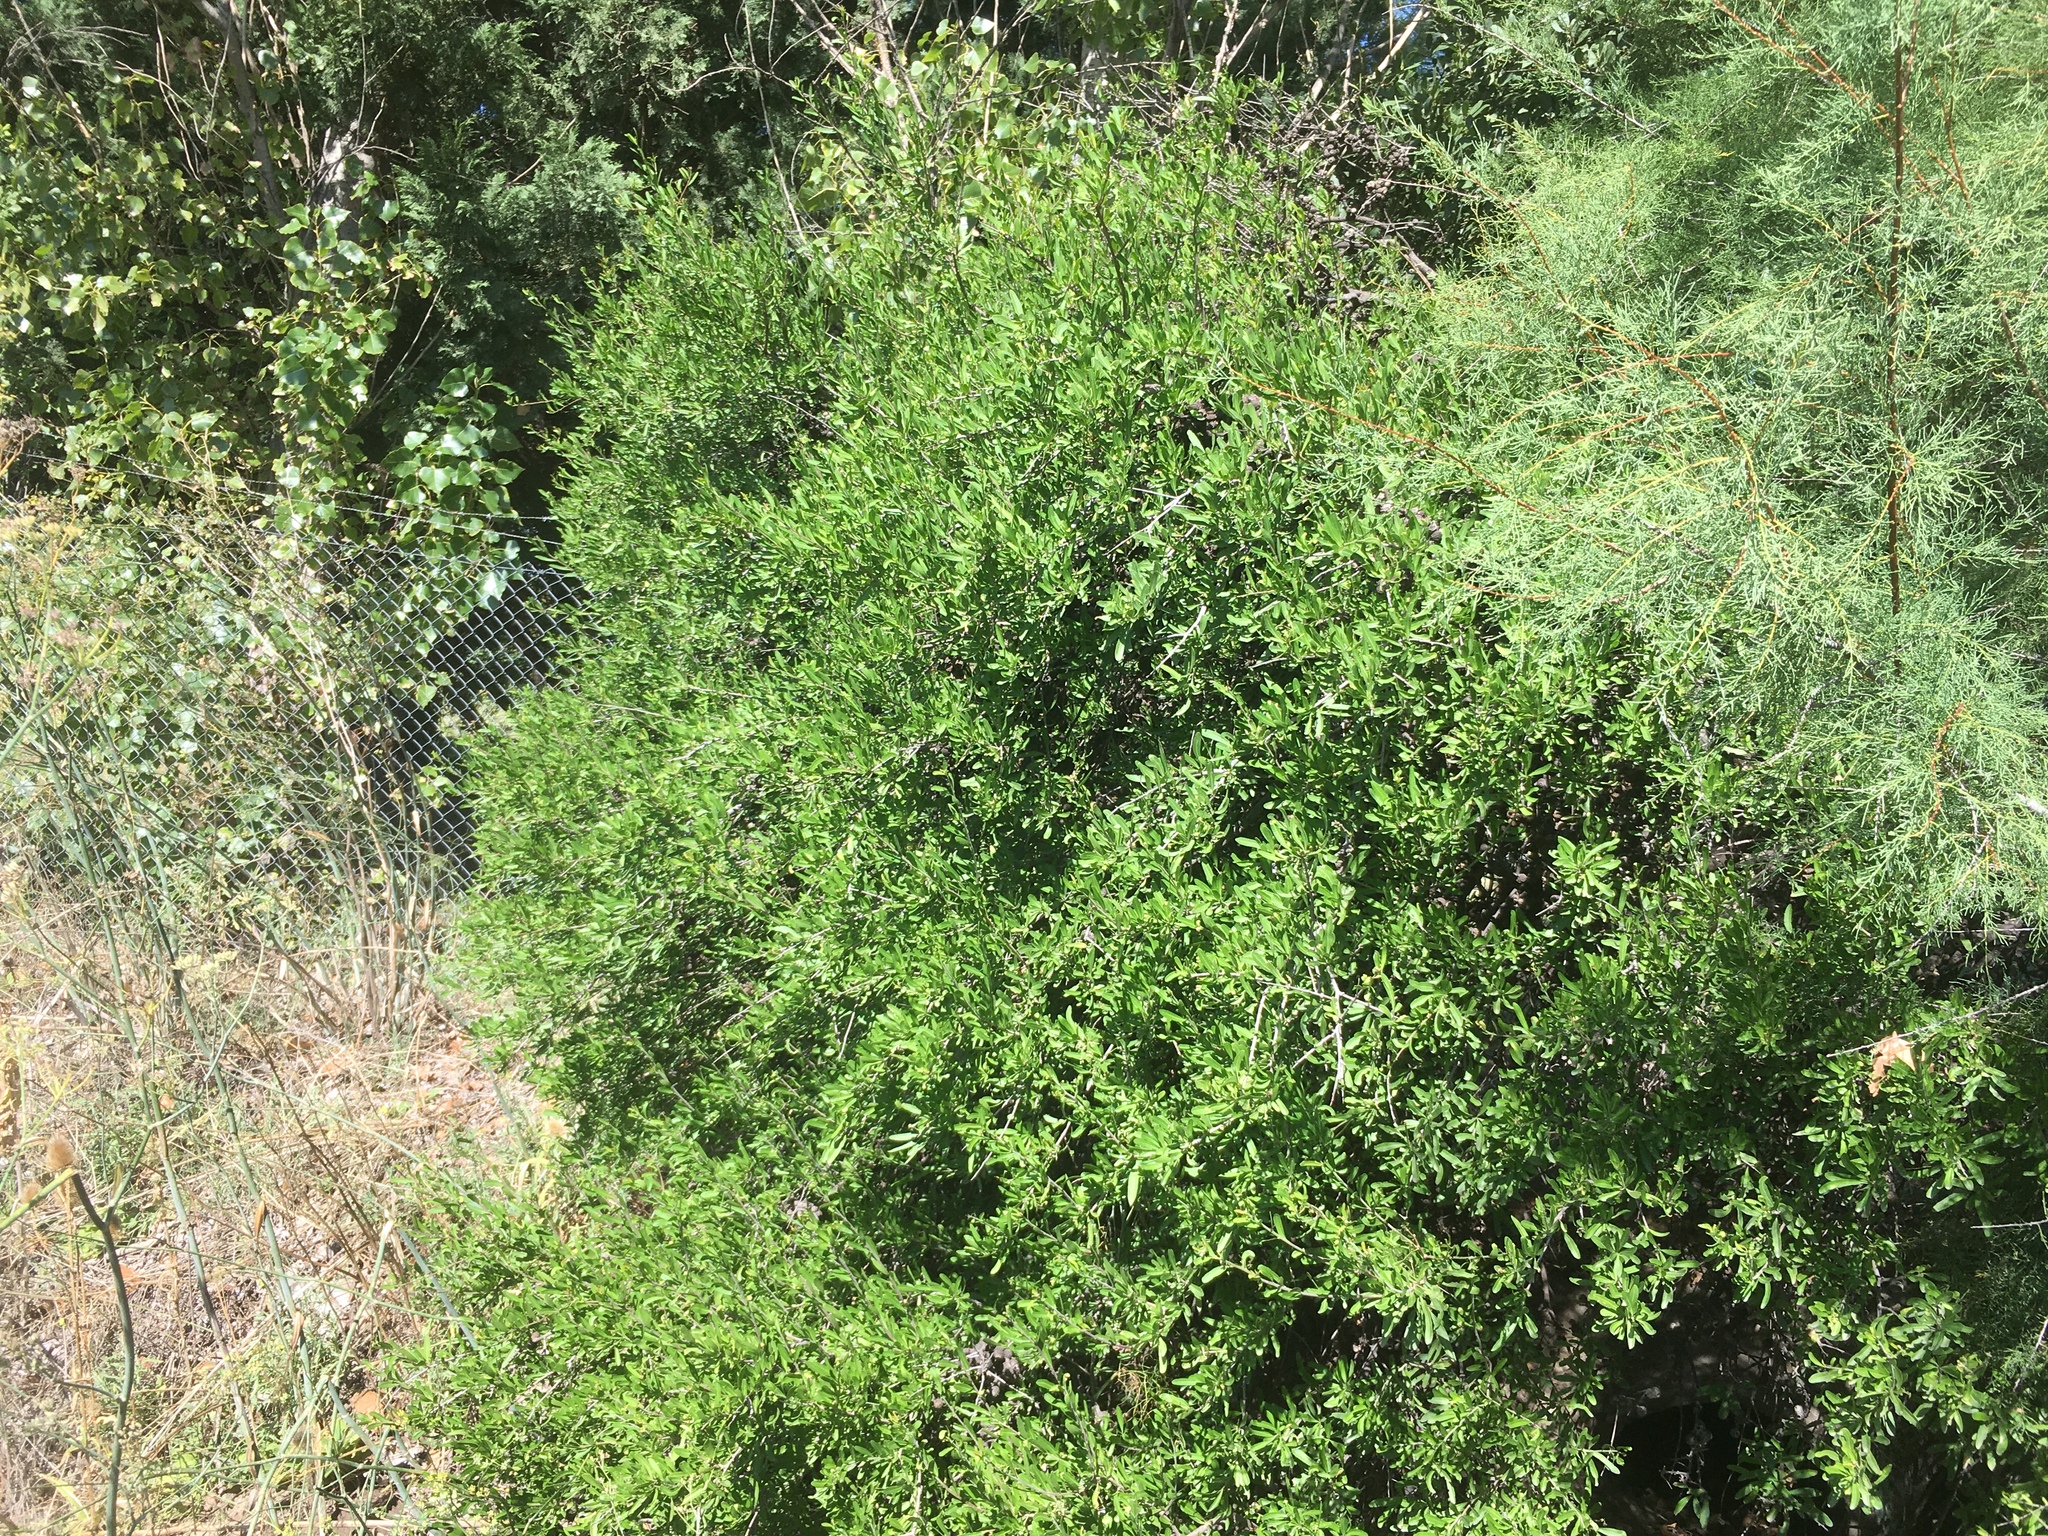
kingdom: Plantae
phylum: Tracheophyta
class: Magnoliopsida
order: Sapindales
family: Anacardiaceae
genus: Schinus
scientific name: Schinus longifolia
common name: Longleaf peppertree
